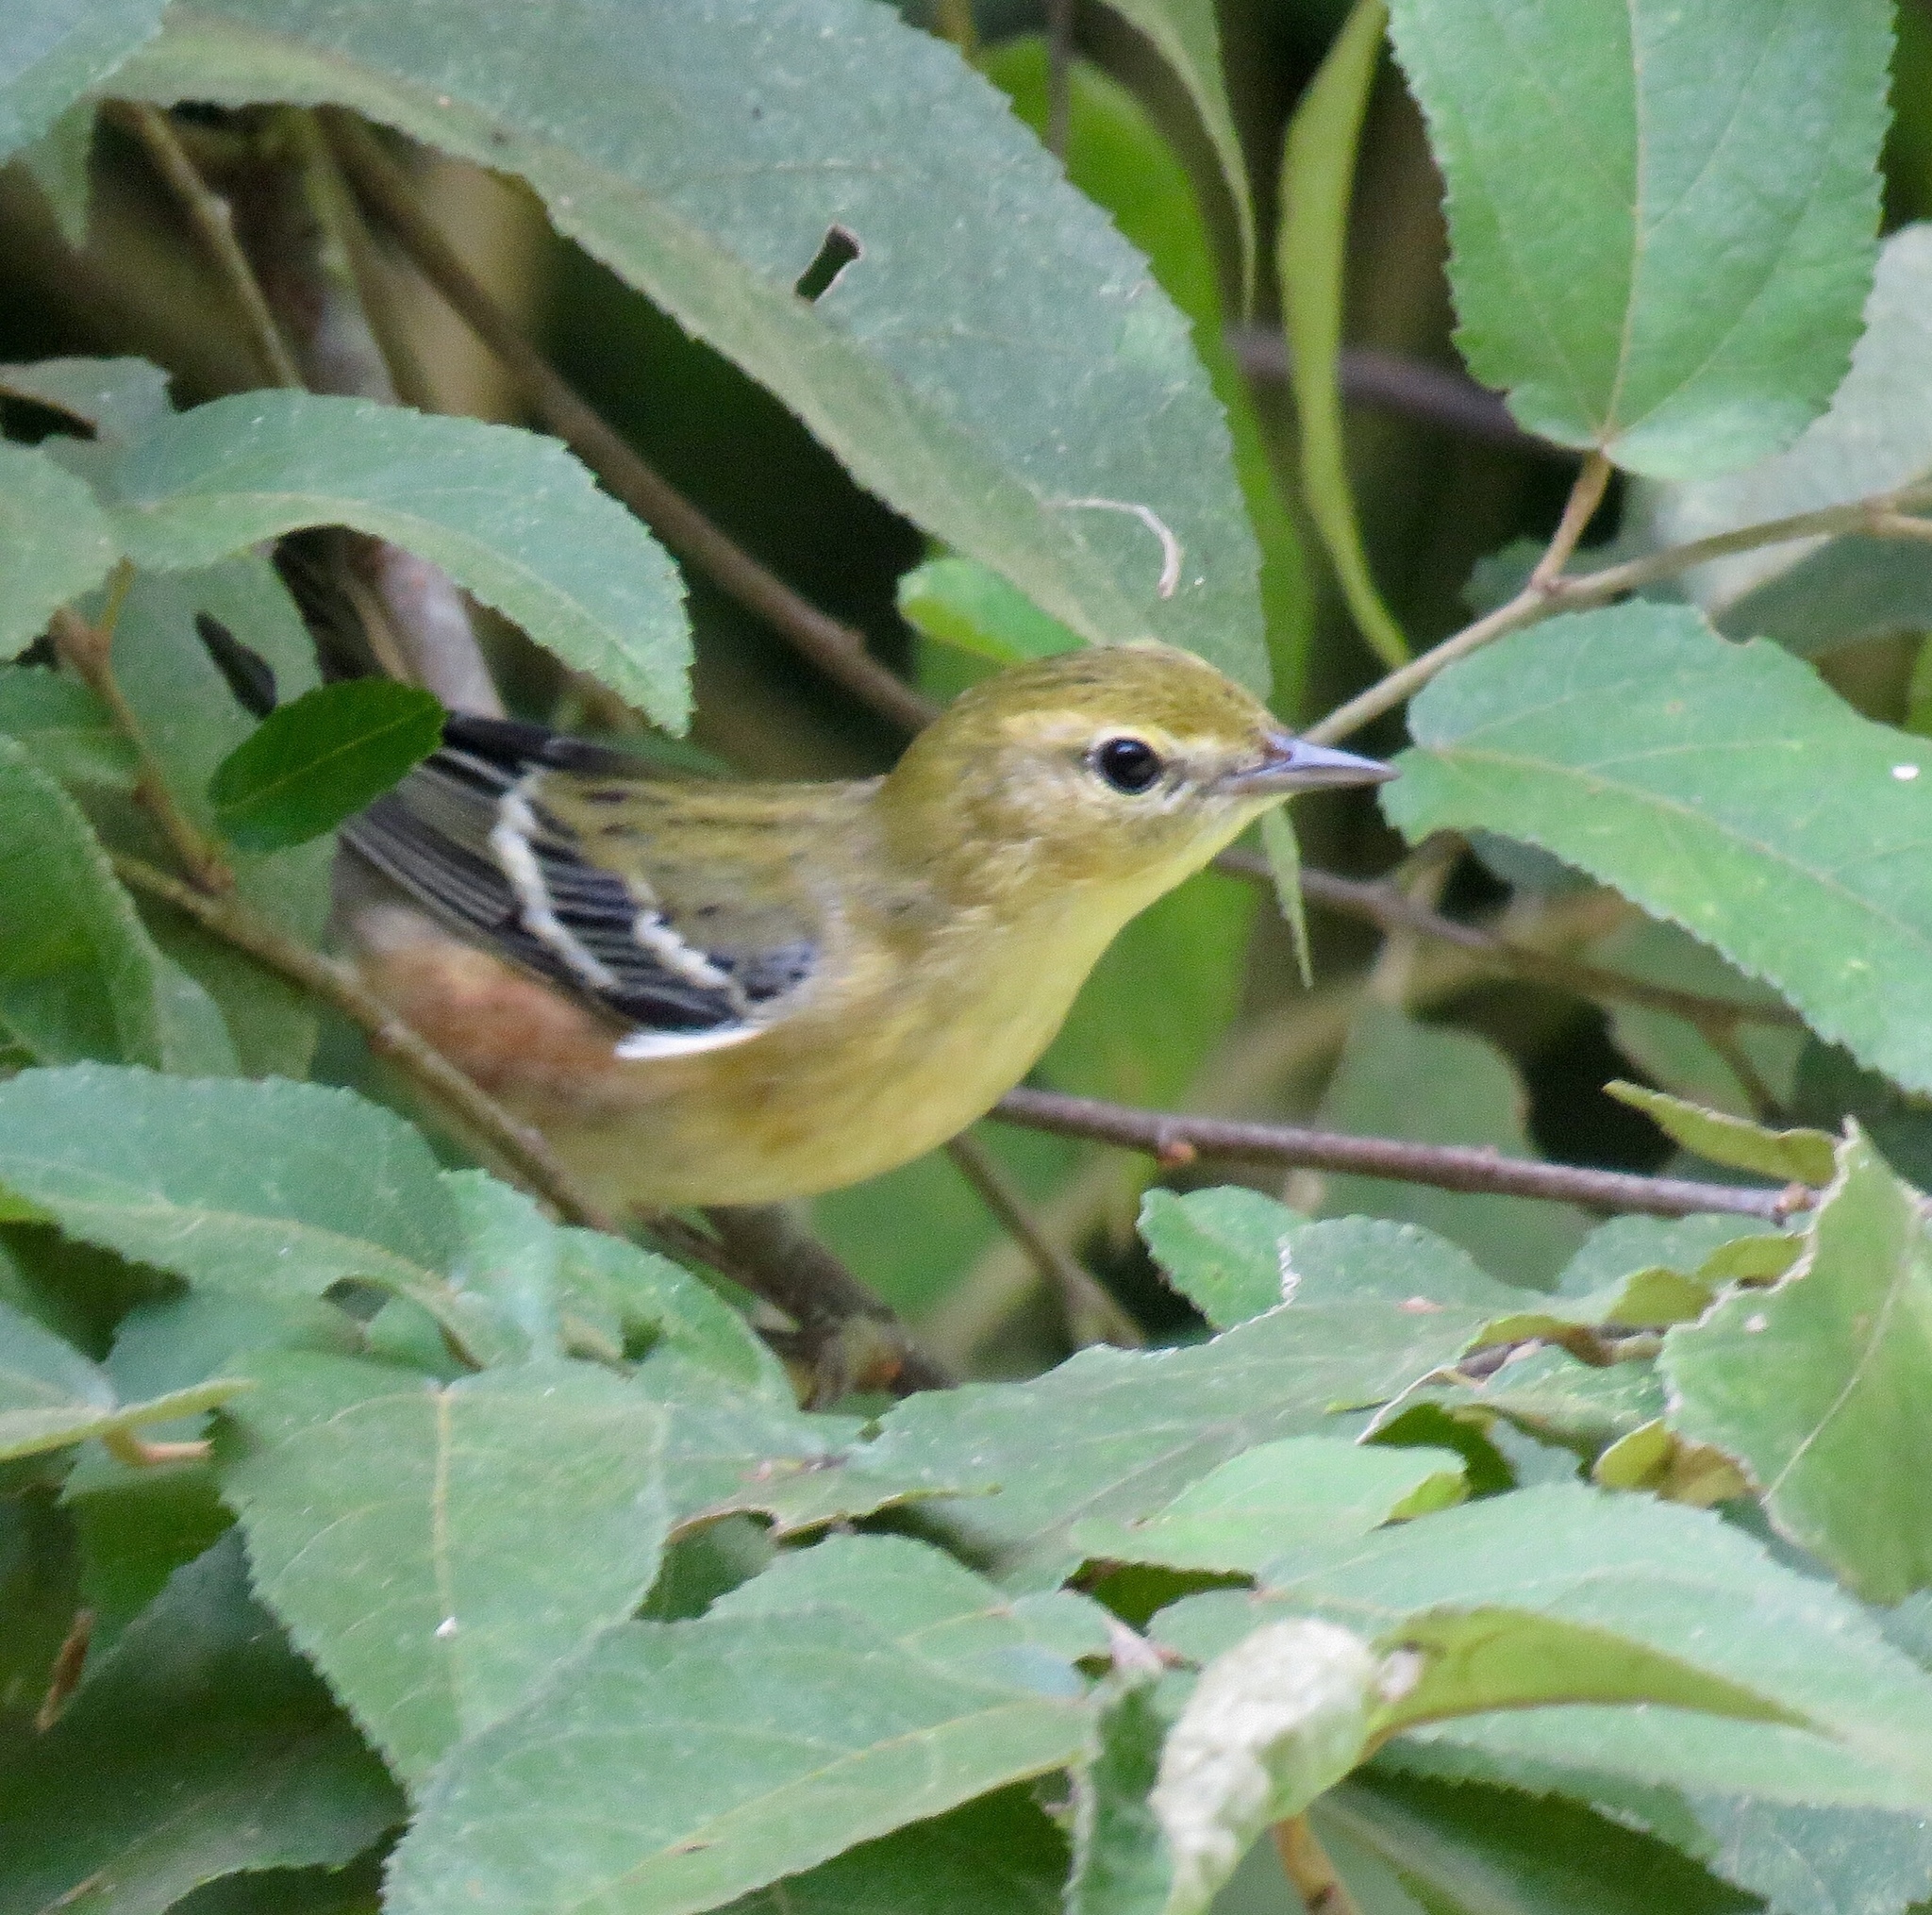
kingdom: Animalia
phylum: Chordata
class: Aves
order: Passeriformes
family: Parulidae
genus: Setophaga
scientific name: Setophaga castanea
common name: Bay-breasted warbler
